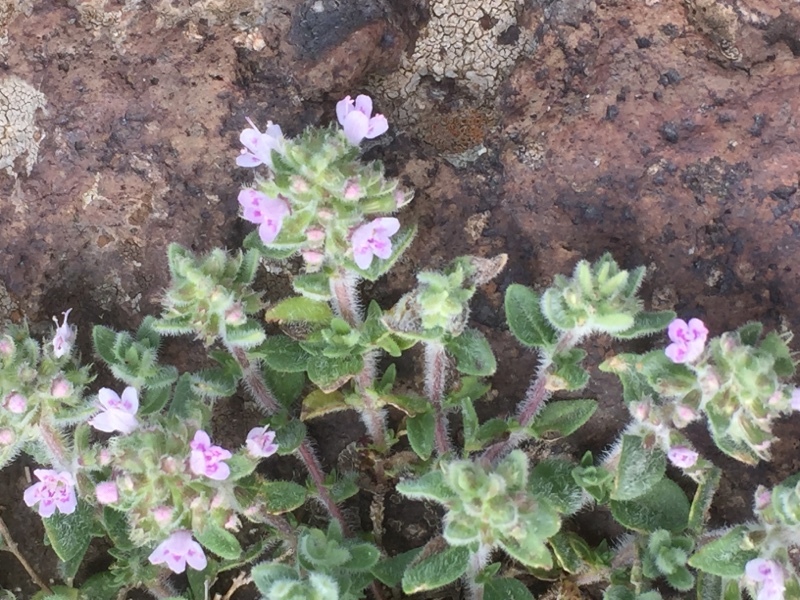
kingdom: Plantae
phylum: Tracheophyta
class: Magnoliopsida
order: Lamiales
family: Lamiaceae
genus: Thymus
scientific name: Thymus pulegioides
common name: Large thyme
